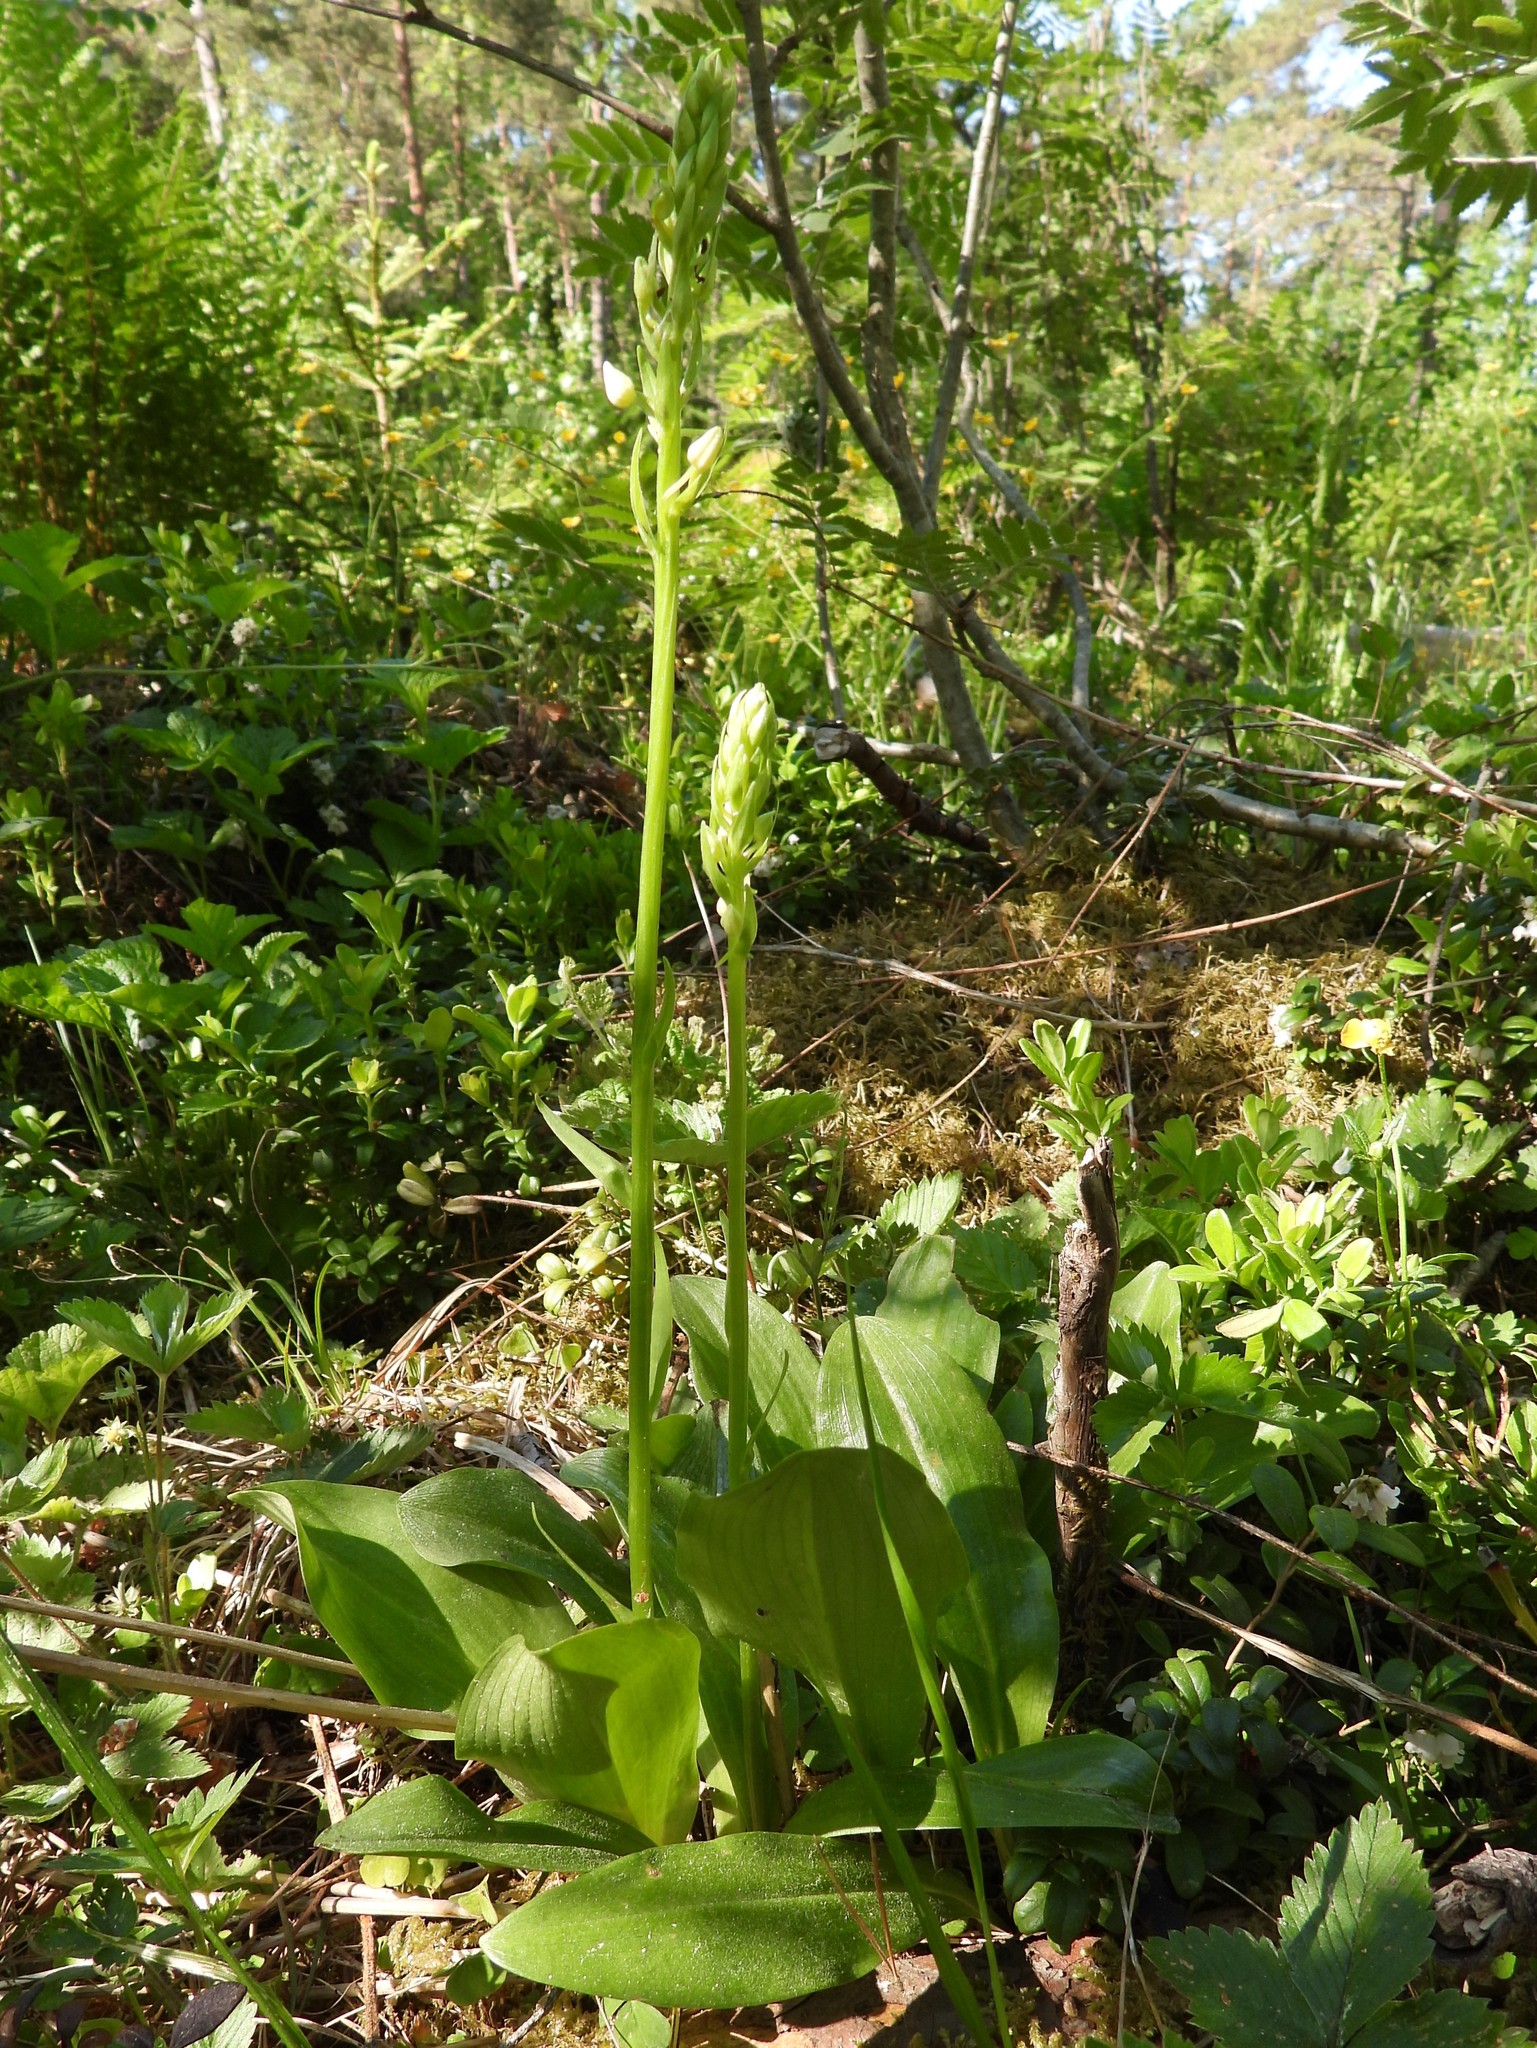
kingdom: Plantae
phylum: Tracheophyta
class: Liliopsida
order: Asparagales
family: Orchidaceae
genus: Platanthera
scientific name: Platanthera bifolia
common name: Lesser butterfly-orchid
